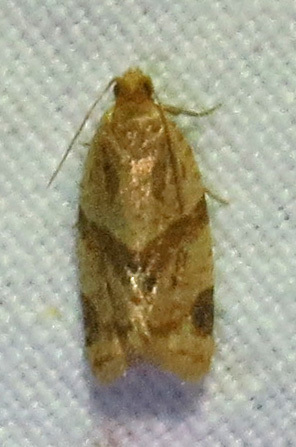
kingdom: Animalia
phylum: Arthropoda
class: Insecta
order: Lepidoptera
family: Tortricidae
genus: Clepsis
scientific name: Clepsis peritana
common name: Garden tortrix
